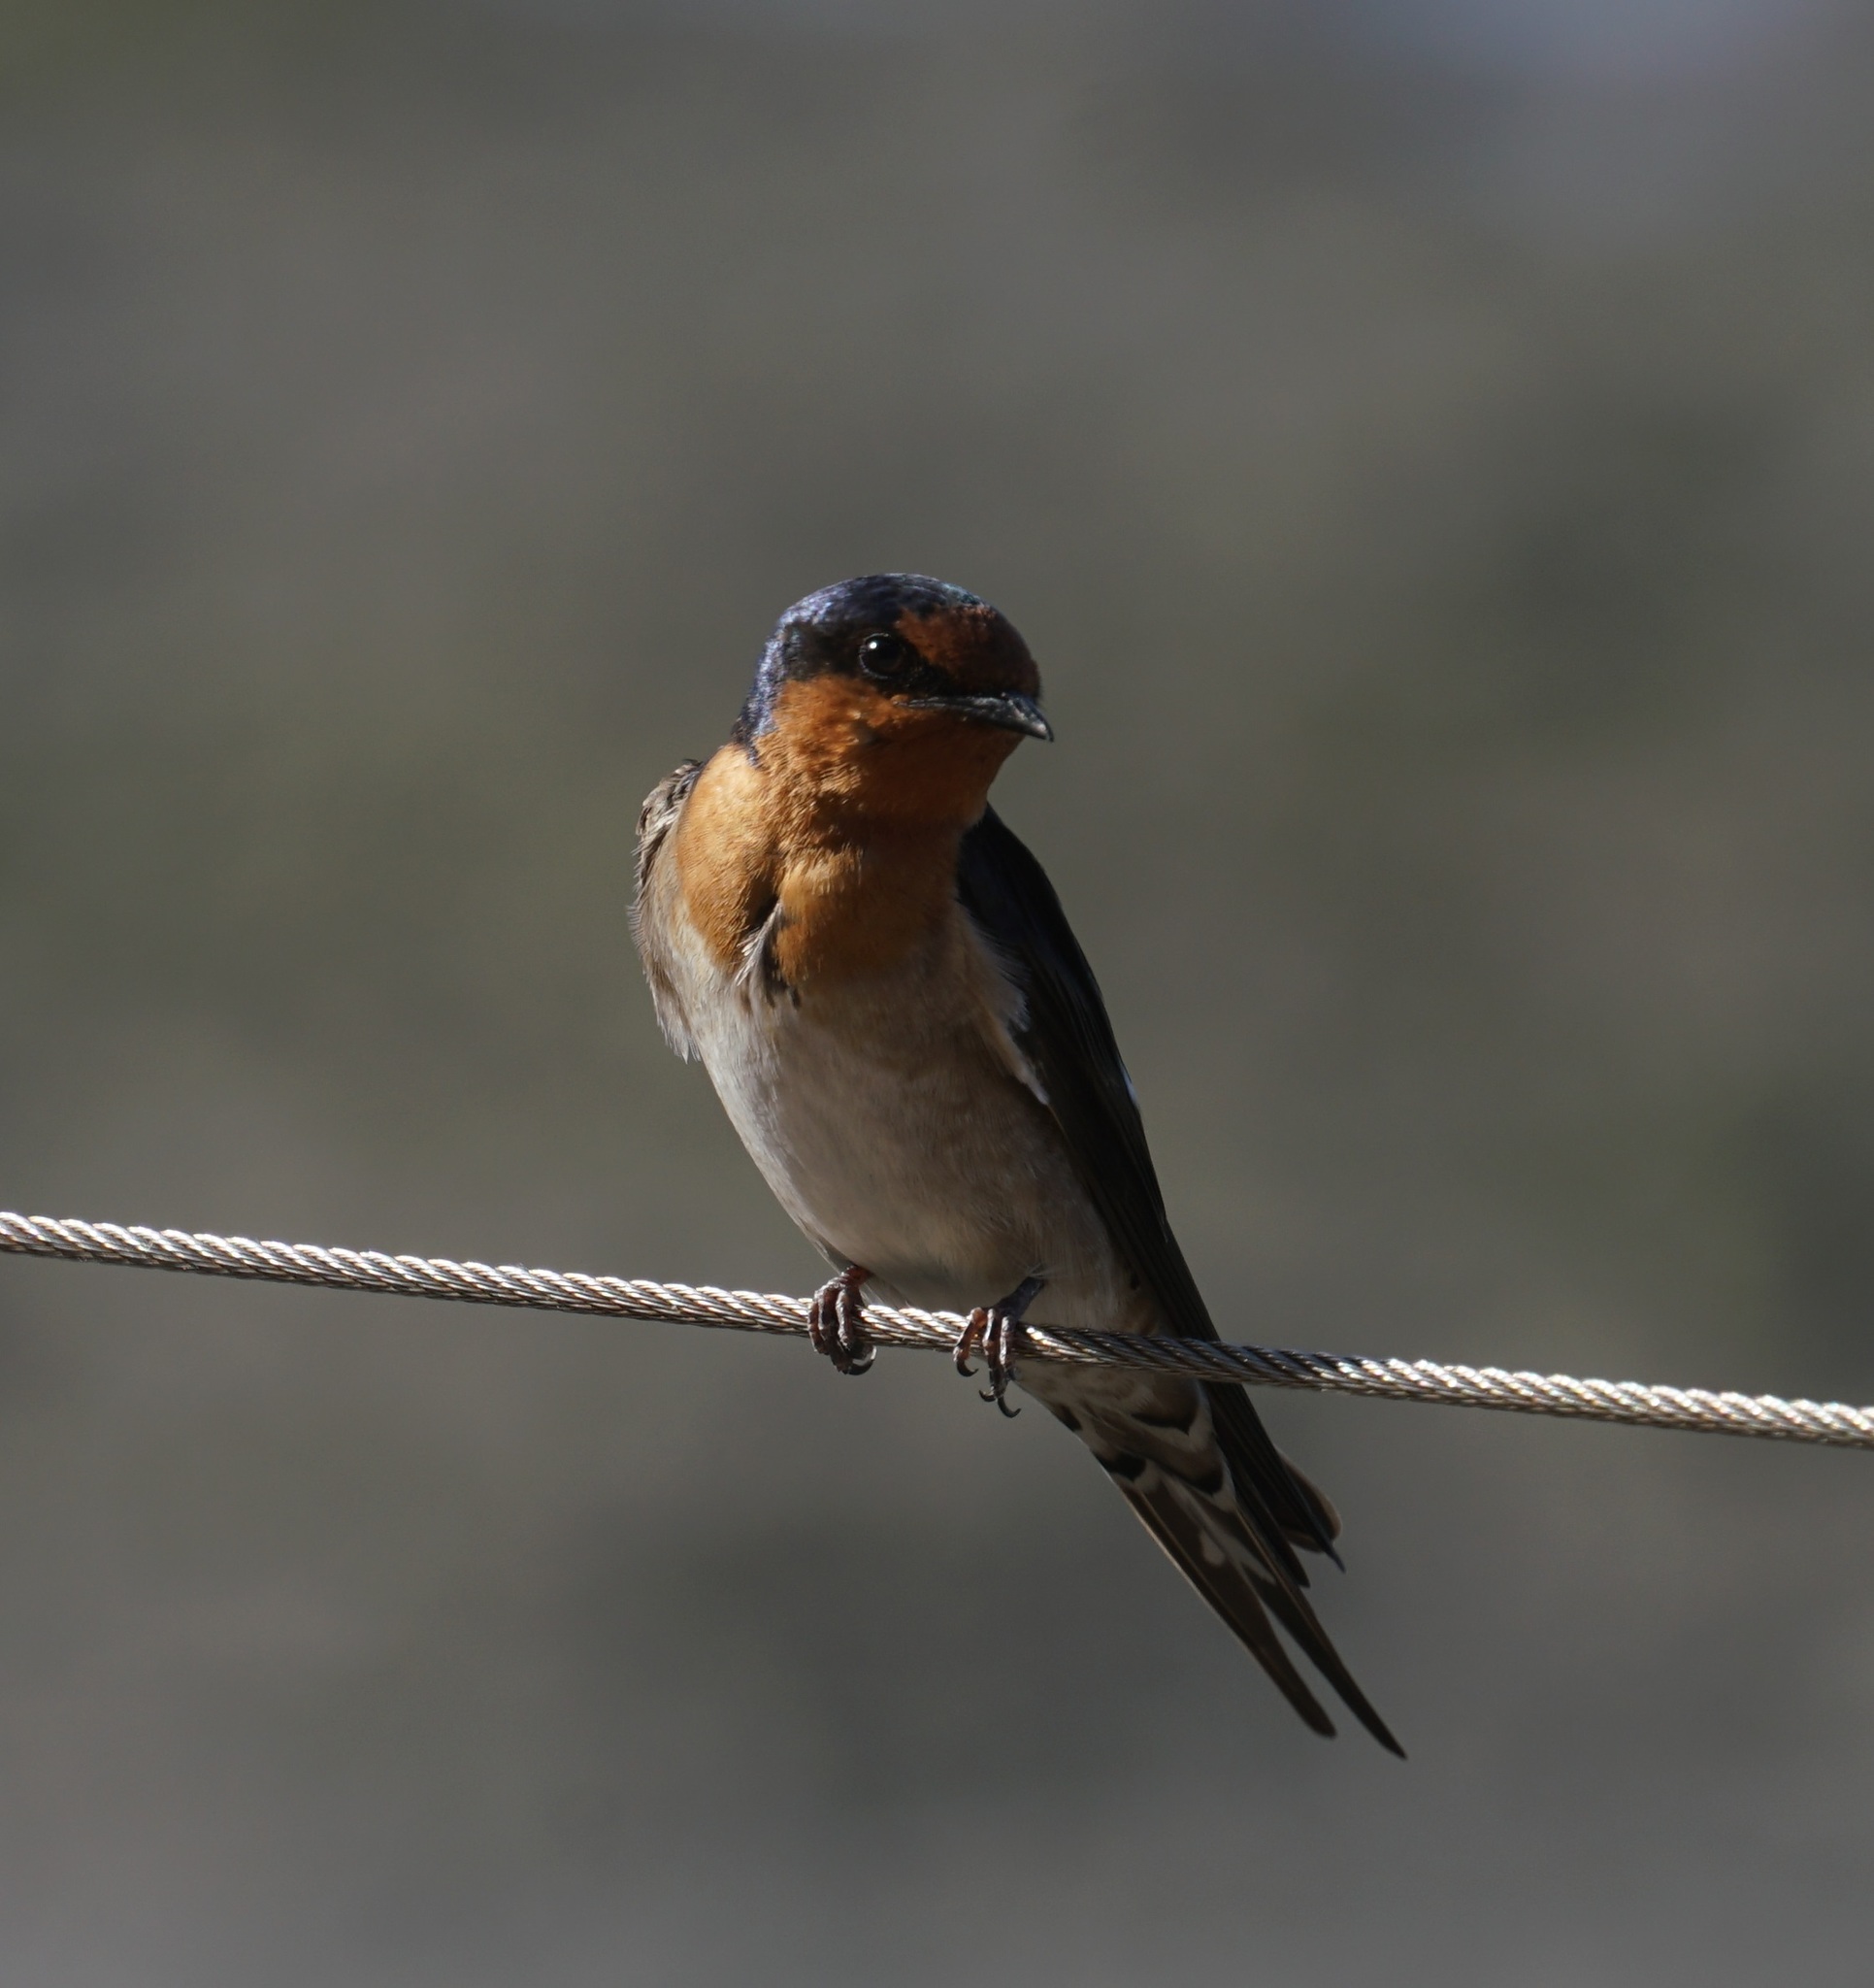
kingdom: Animalia
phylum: Chordata
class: Aves
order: Passeriformes
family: Hirundinidae
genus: Hirundo
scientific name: Hirundo neoxena
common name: Welcome swallow
